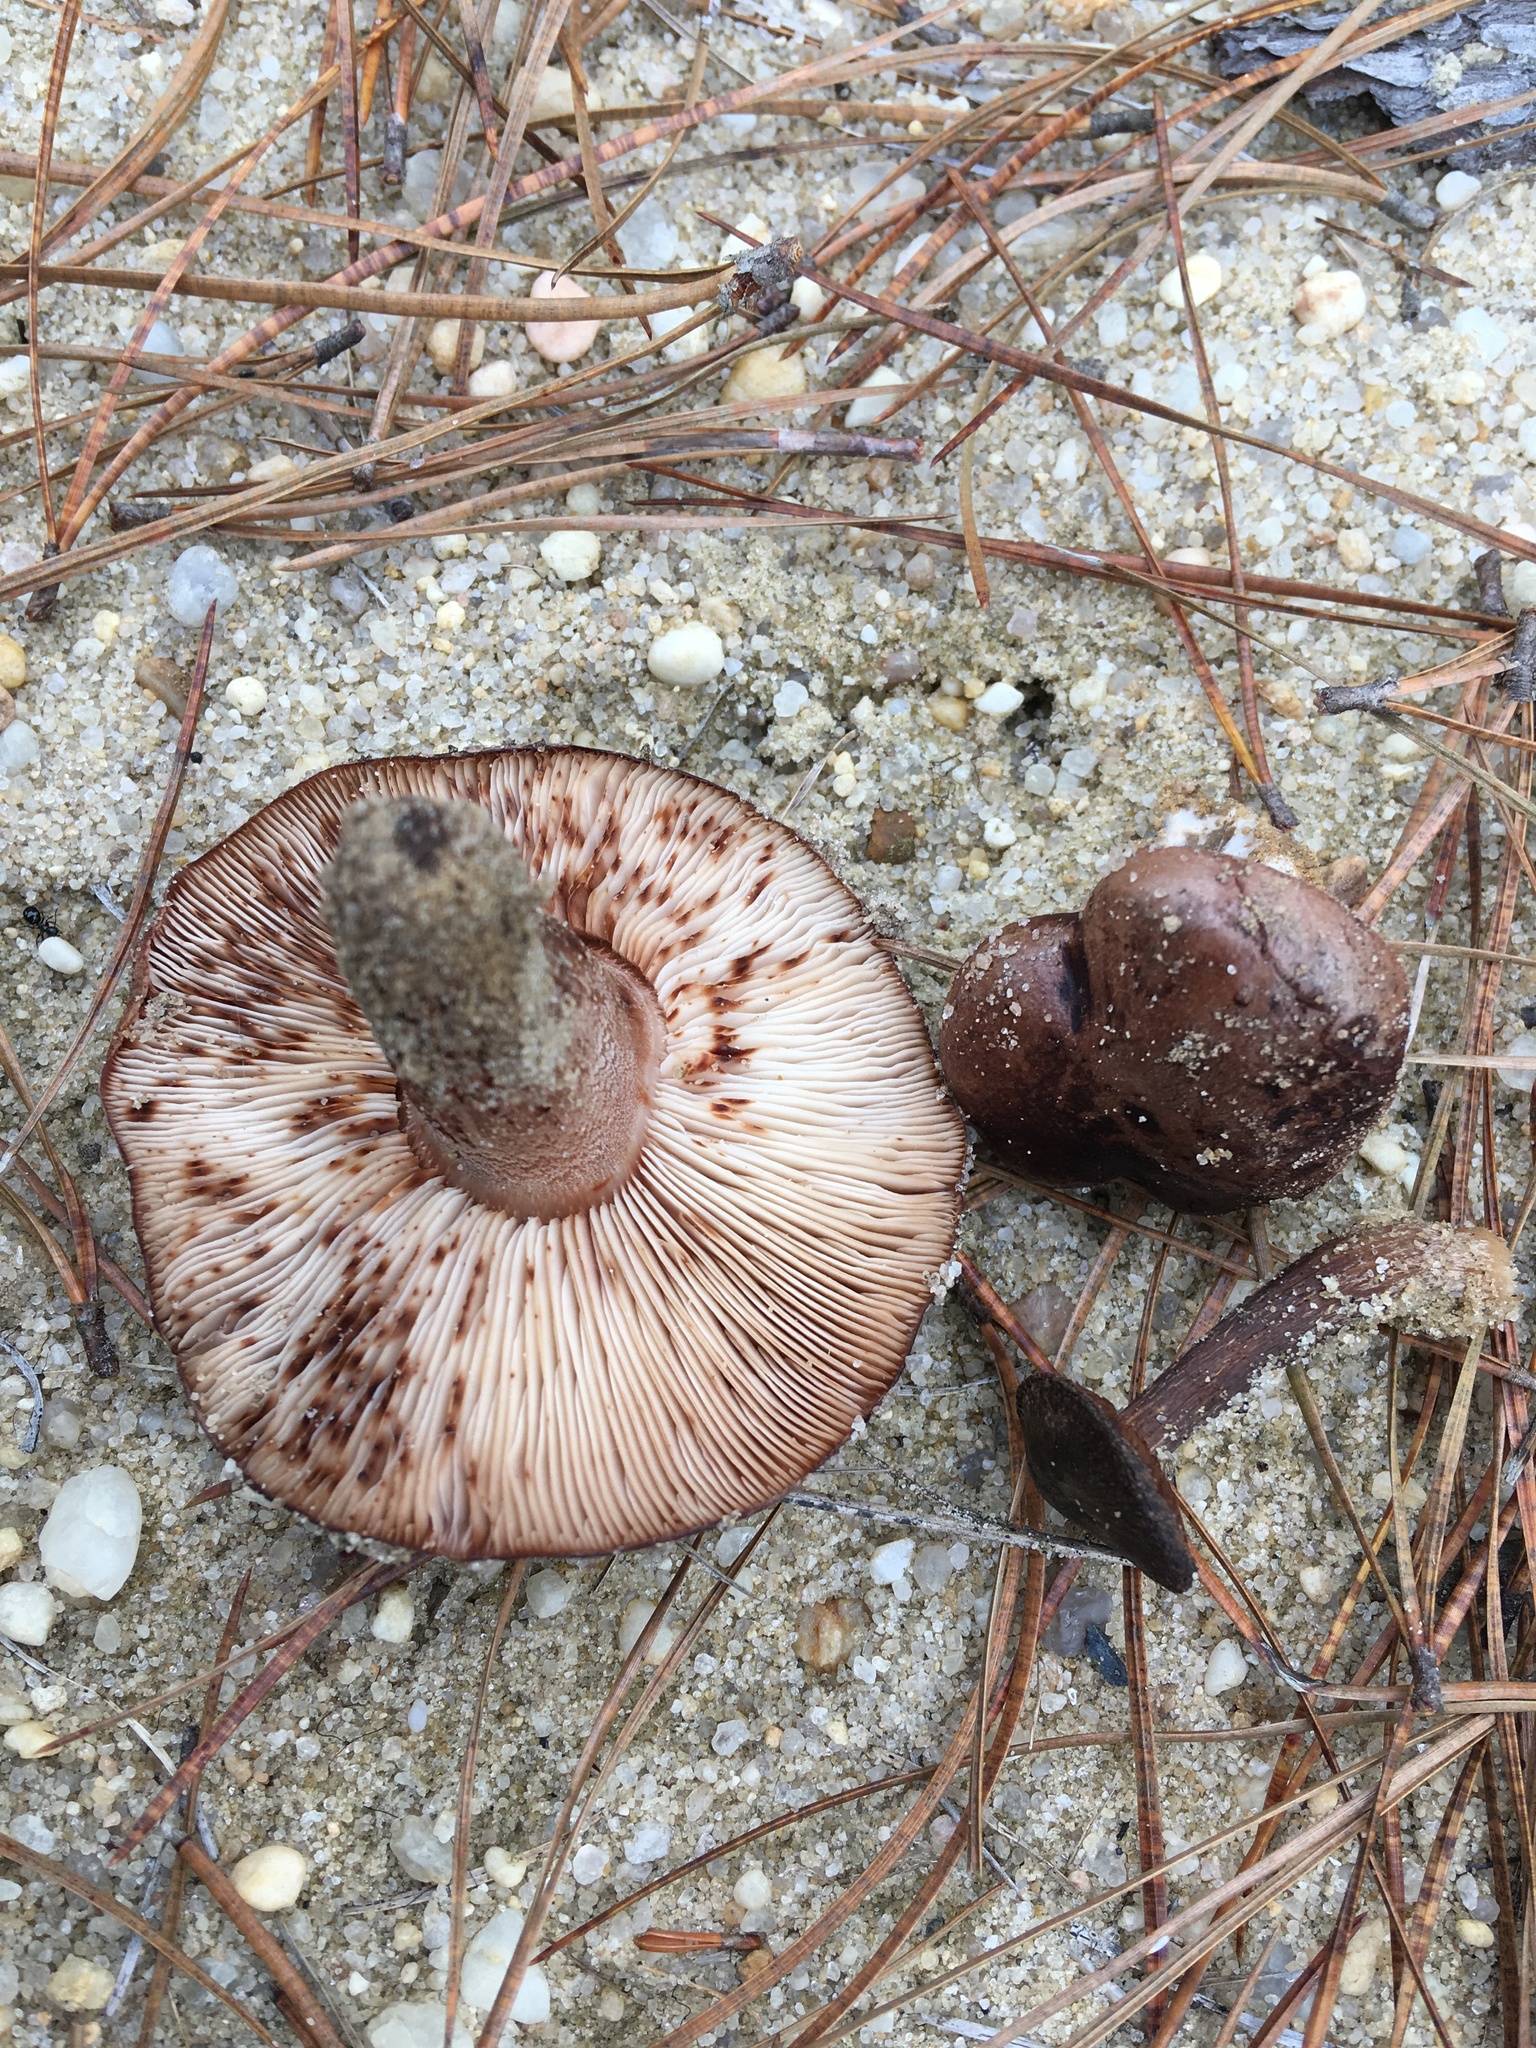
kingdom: Fungi
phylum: Basidiomycota
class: Agaricomycetes
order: Agaricales
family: Tricholomataceae
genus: Tricholoma
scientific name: Tricholoma imbricatum
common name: Matt knight
